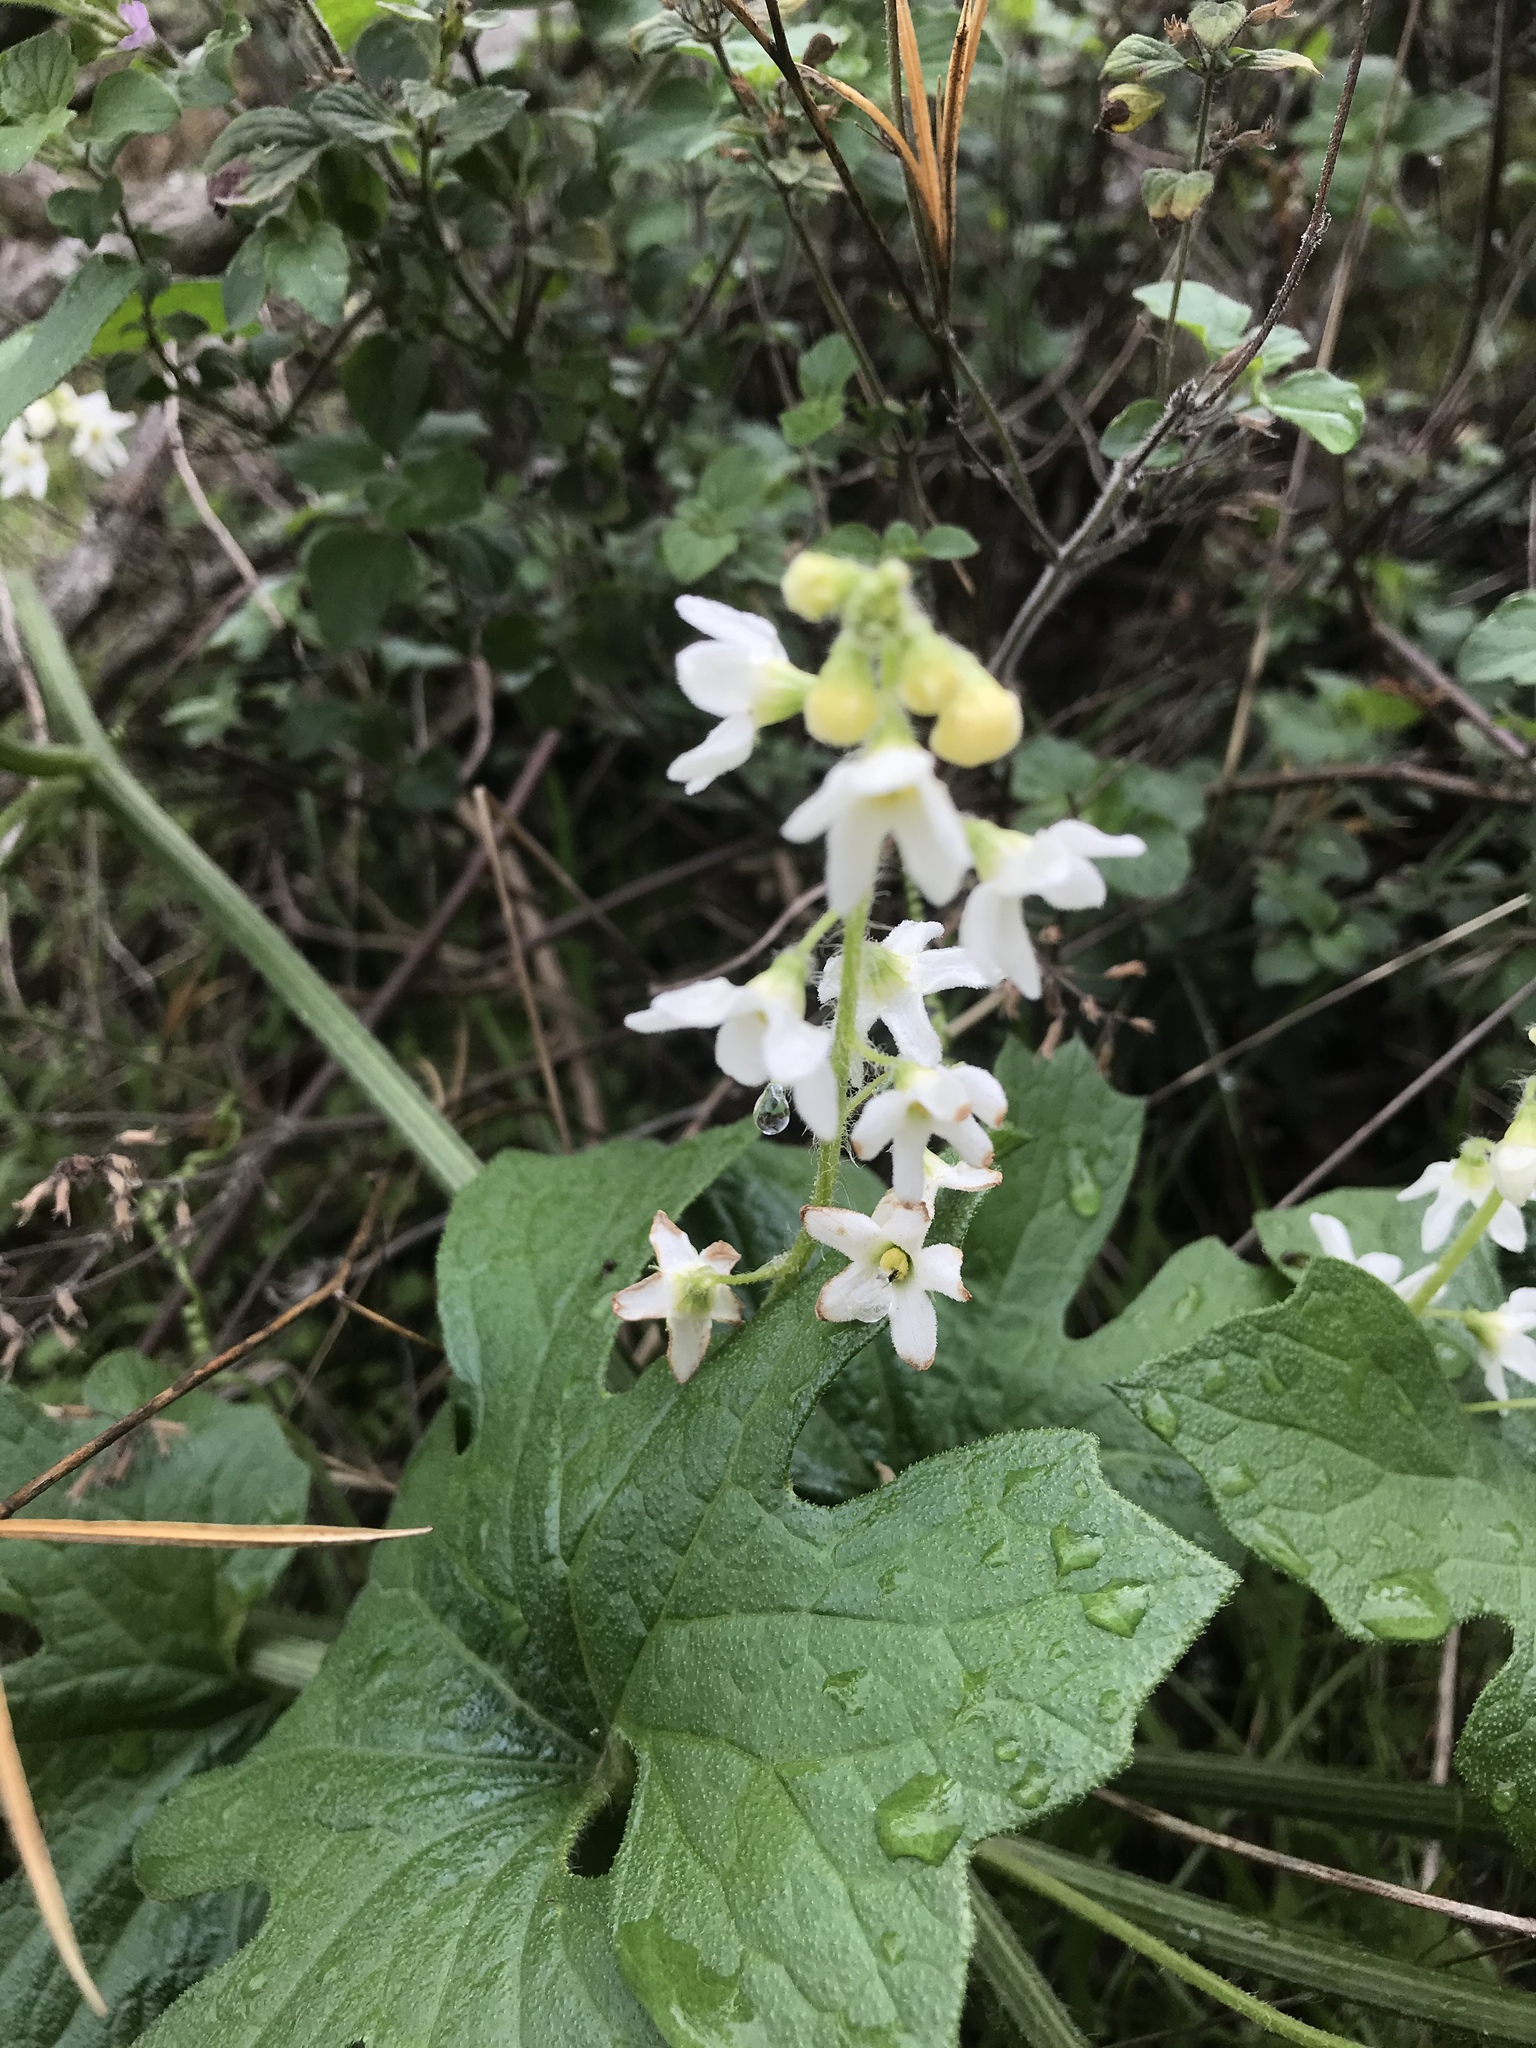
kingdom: Plantae
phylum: Tracheophyta
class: Magnoliopsida
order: Cucurbitales
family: Cucurbitaceae
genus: Marah
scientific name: Marah oregana
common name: Coastal manroot
